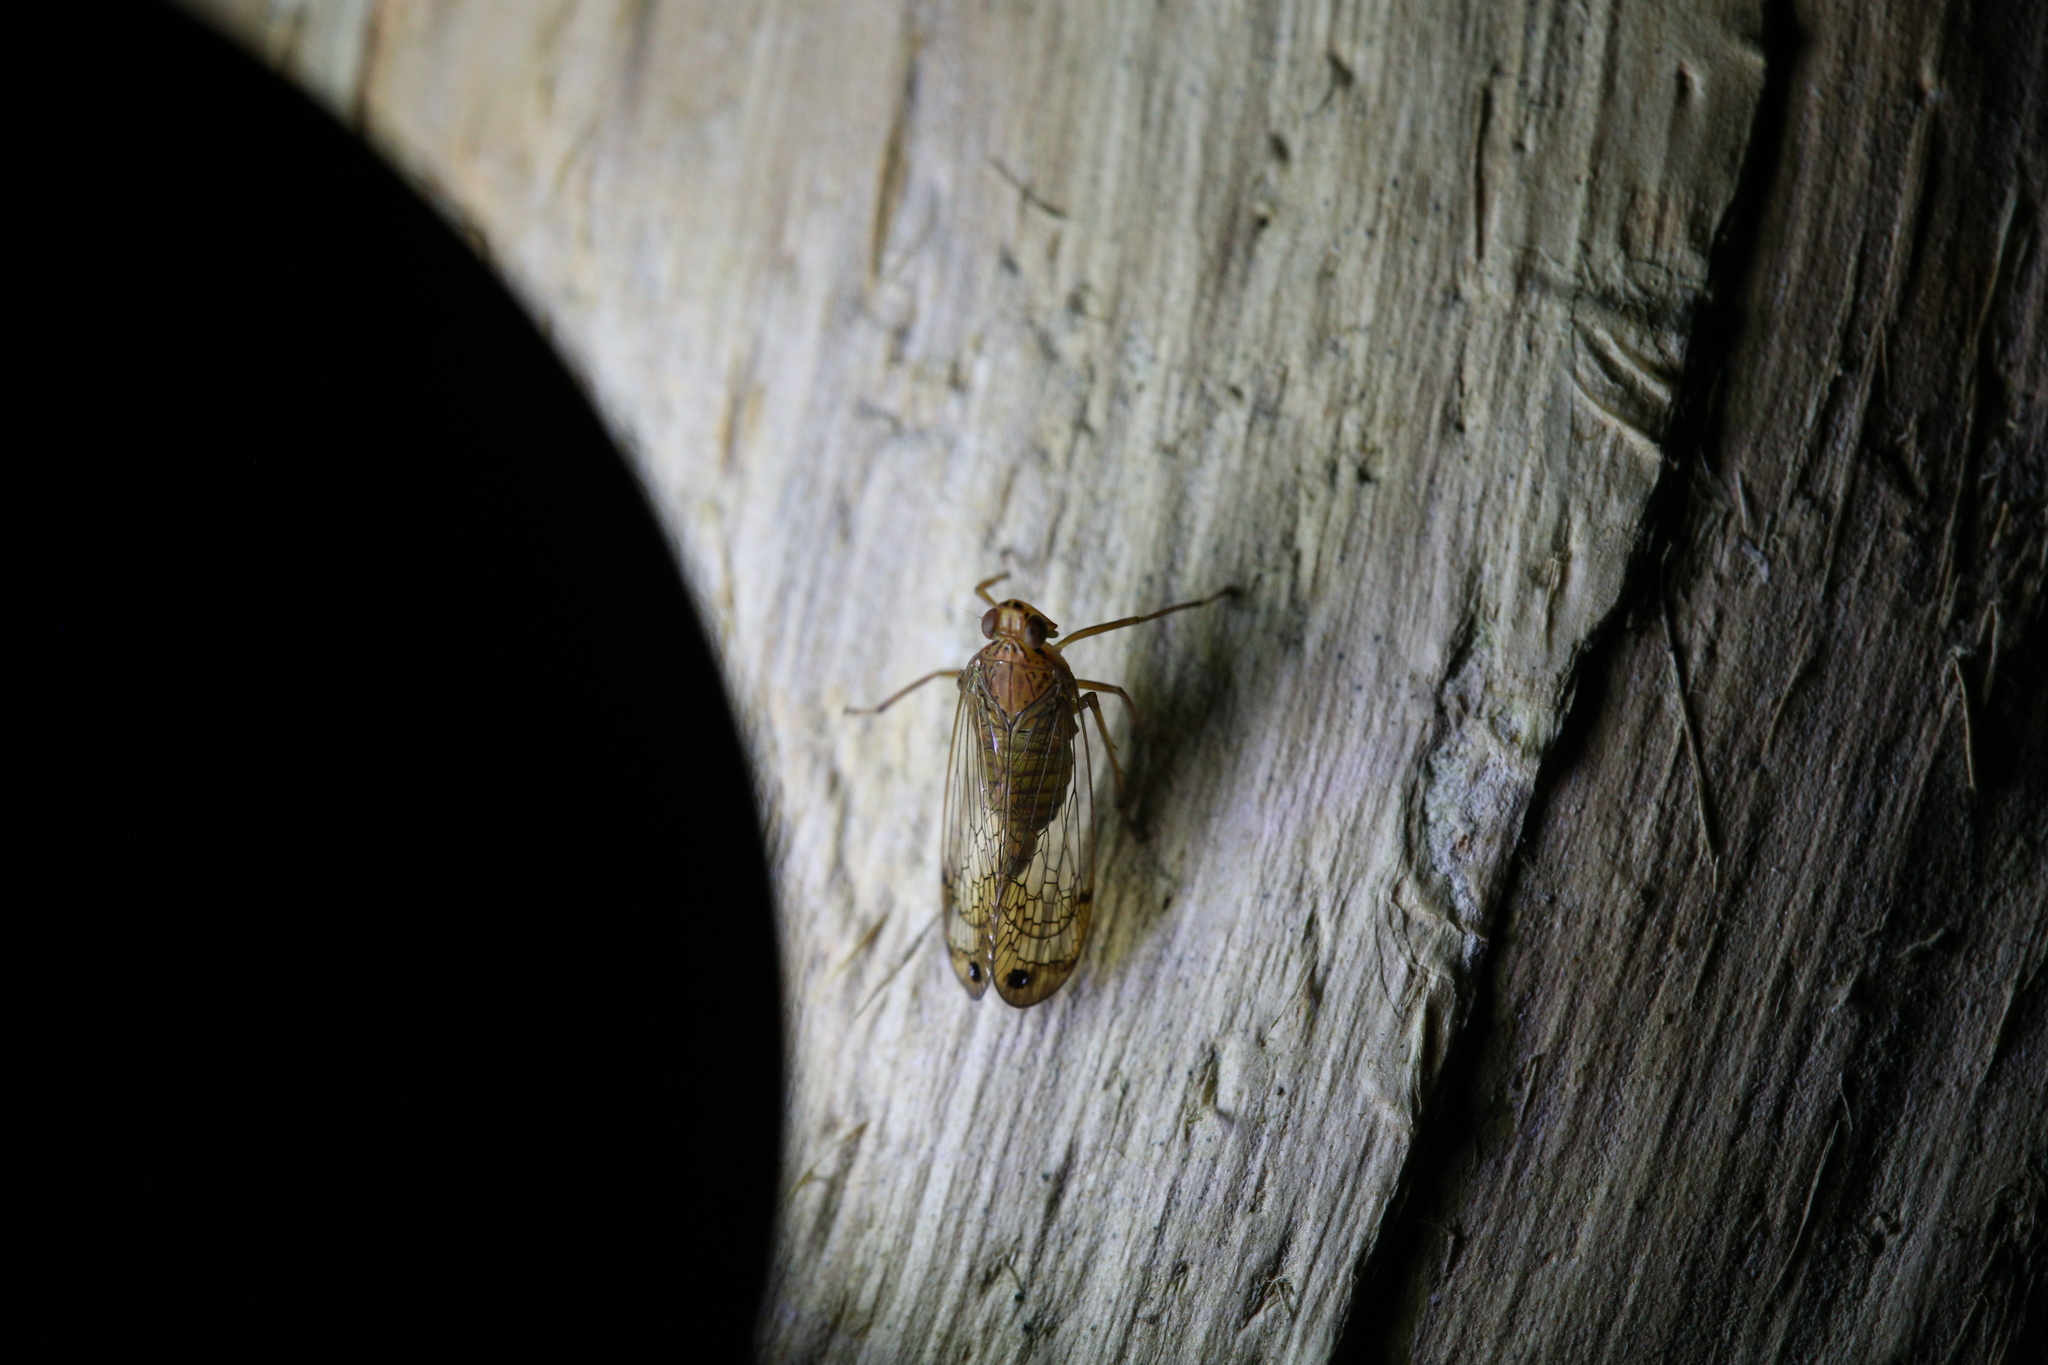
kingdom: Animalia
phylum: Arthropoda
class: Insecta
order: Hemiptera
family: Lophopidae
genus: Magia
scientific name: Magia subocellata
